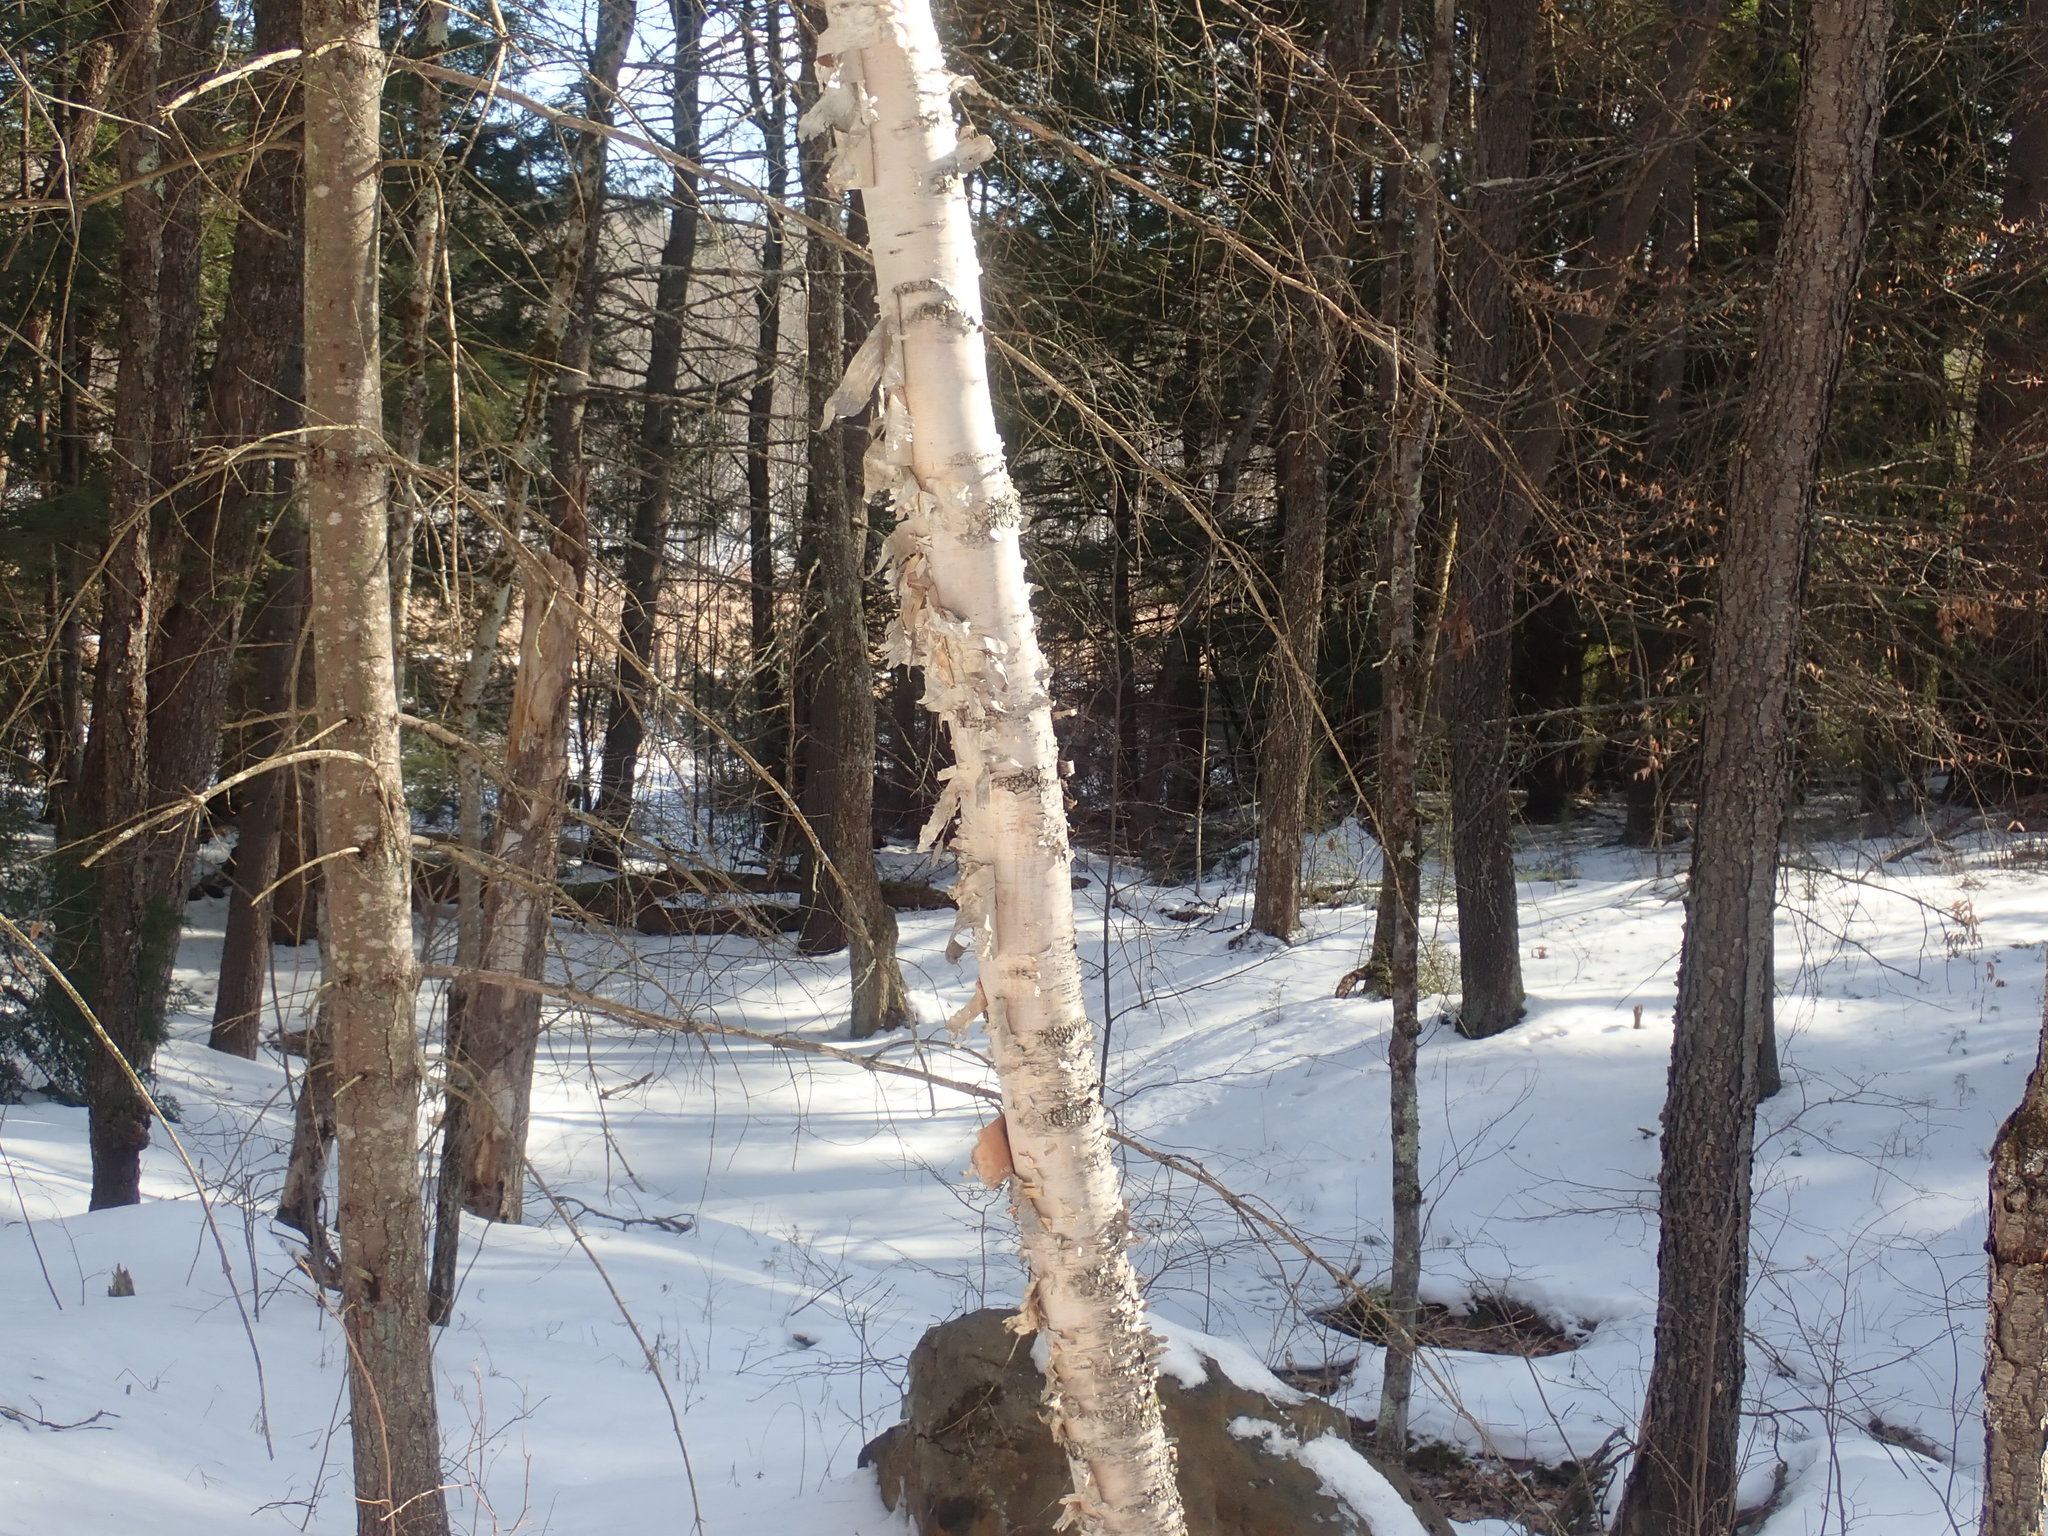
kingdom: Plantae
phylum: Tracheophyta
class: Magnoliopsida
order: Fagales
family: Betulaceae
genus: Betula
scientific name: Betula papyrifera
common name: Paper birch
